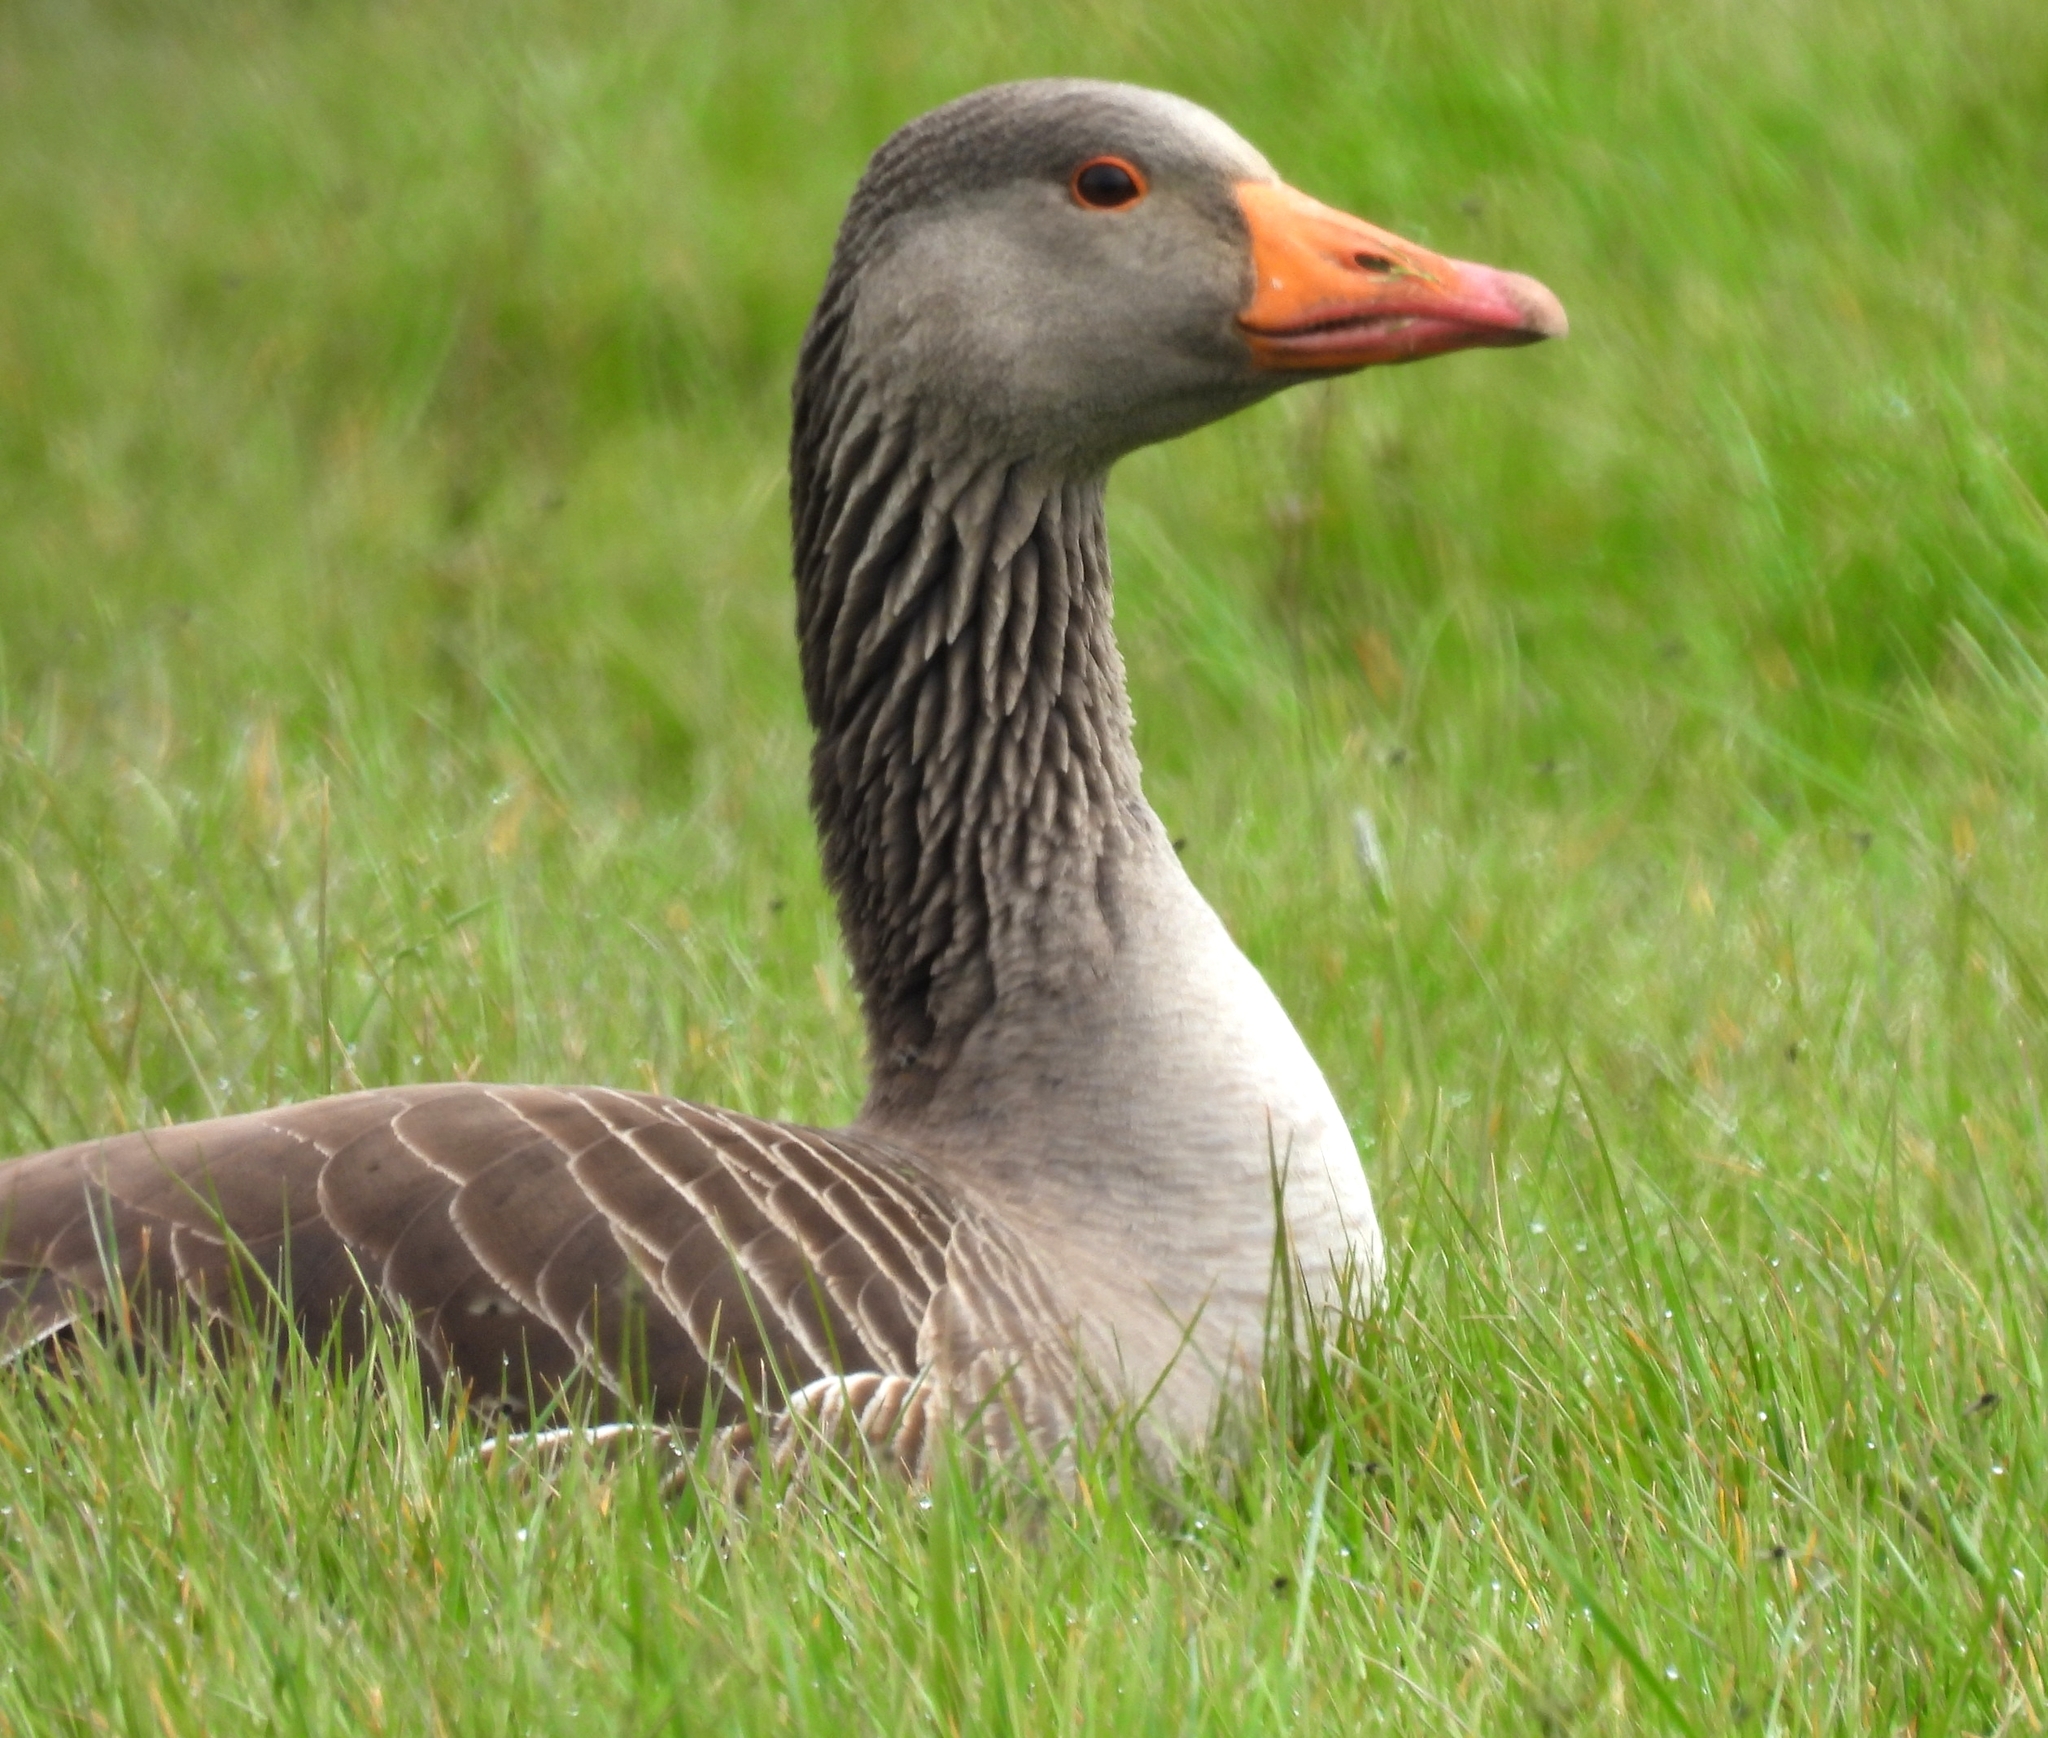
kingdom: Animalia
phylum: Chordata
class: Aves
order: Anseriformes
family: Anatidae
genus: Anser
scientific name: Anser anser
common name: Greylag goose
